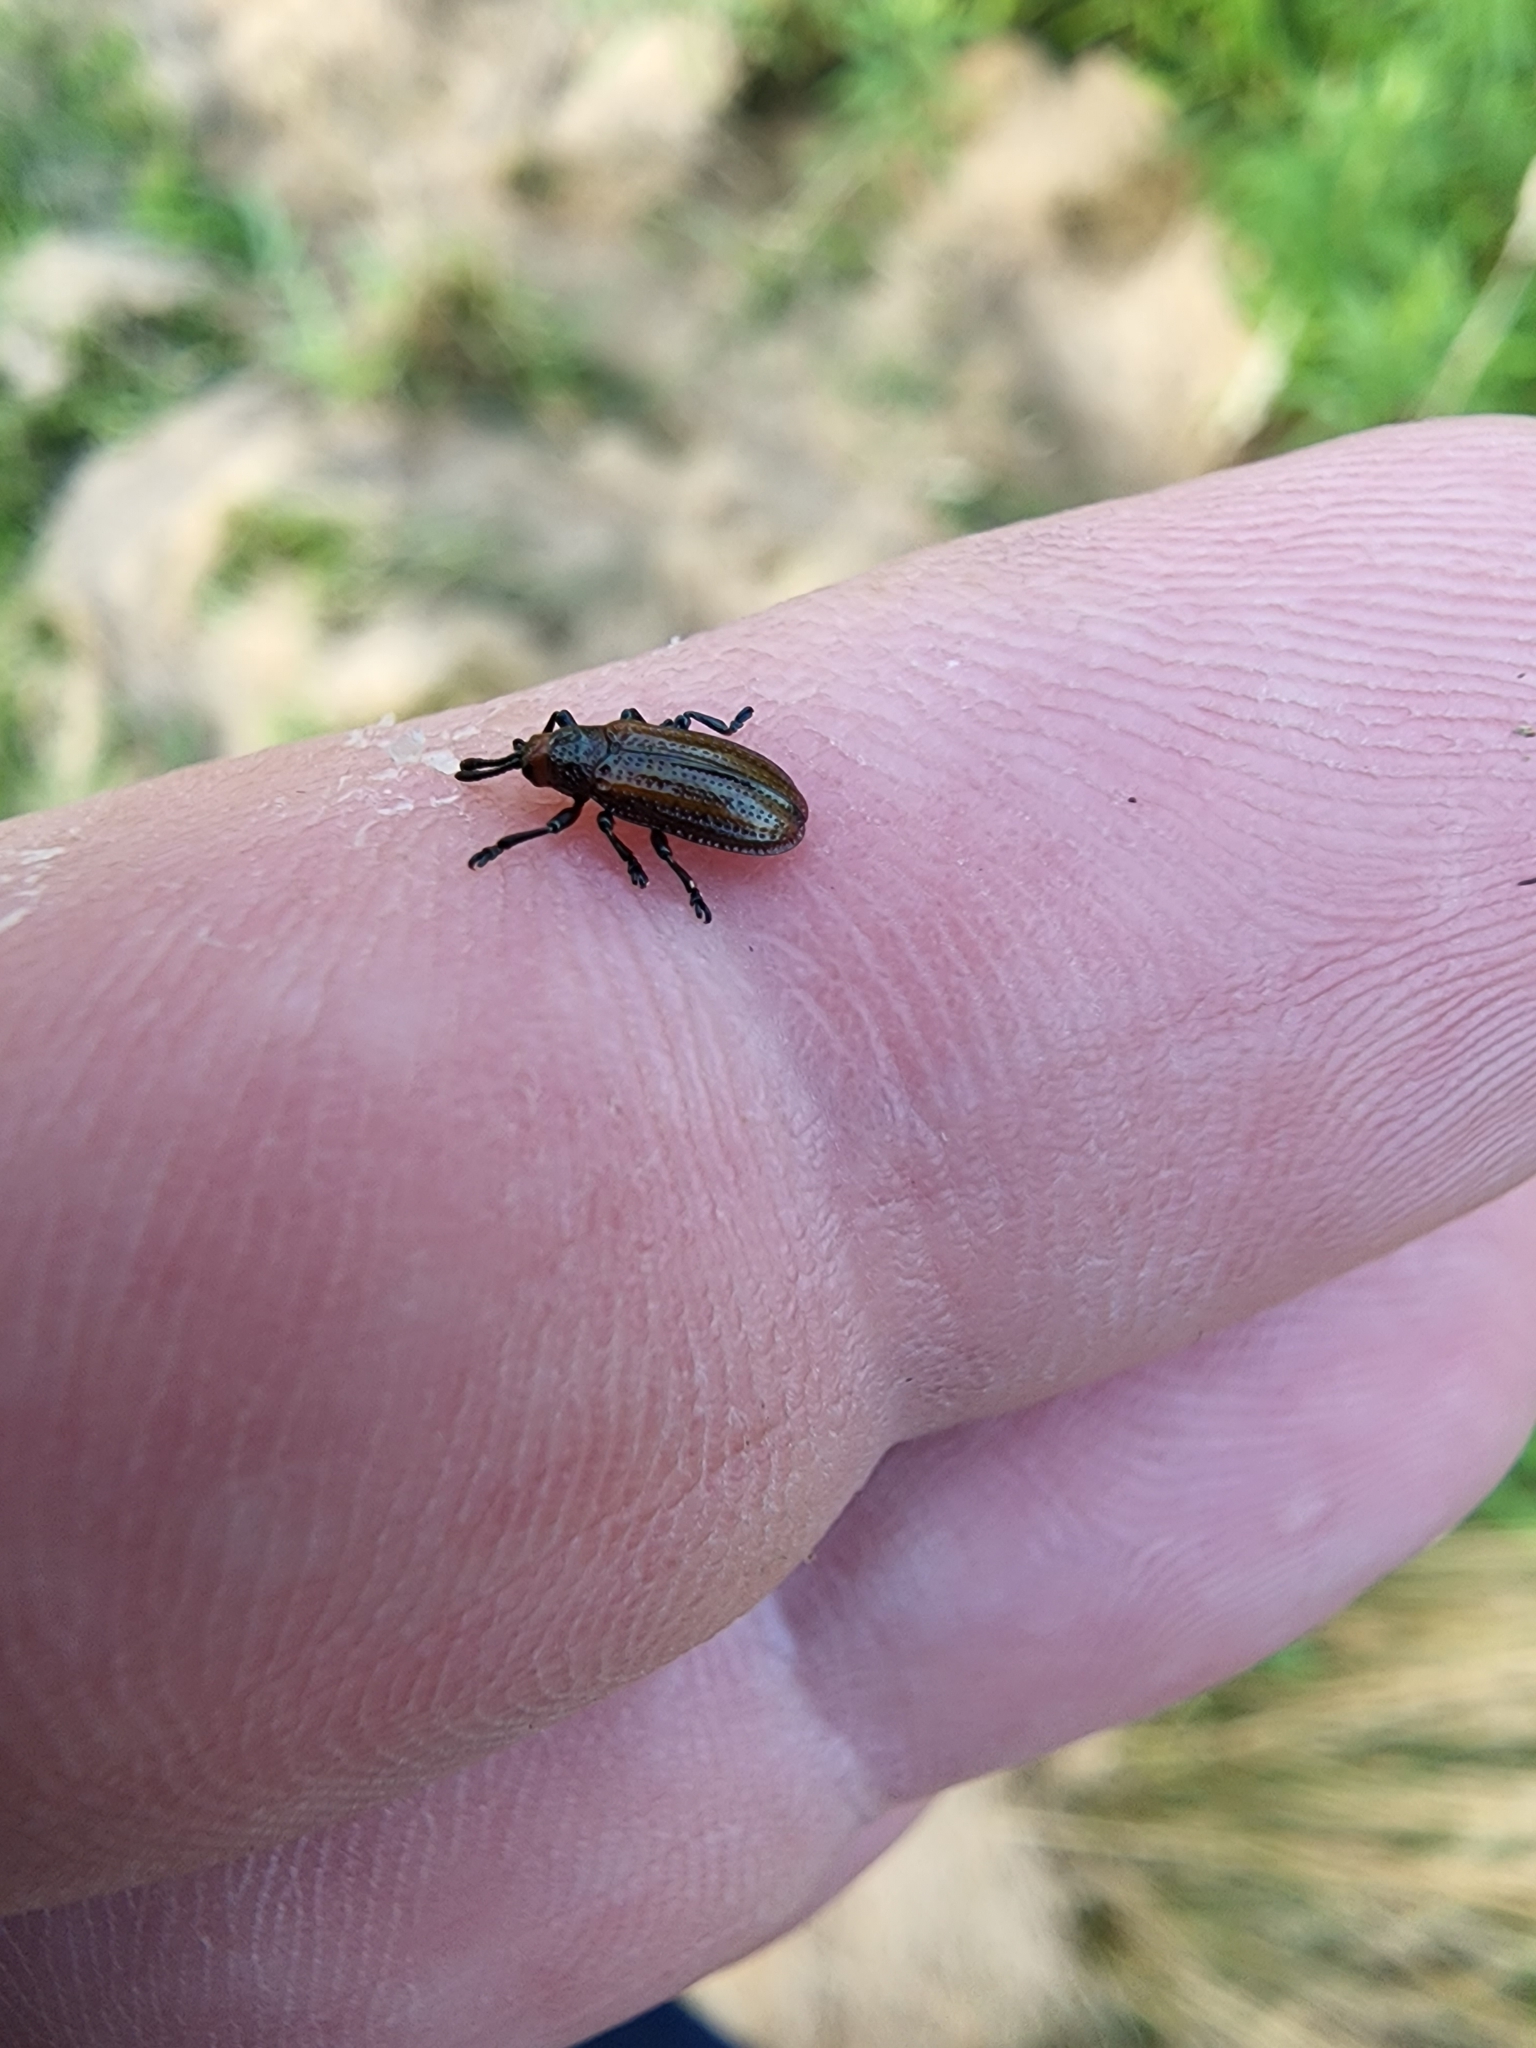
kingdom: Animalia
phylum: Arthropoda
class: Insecta
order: Coleoptera
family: Chrysomelidae
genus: Microrhopala
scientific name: Microrhopala vittata
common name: Goldenrod leaf miner beetle
